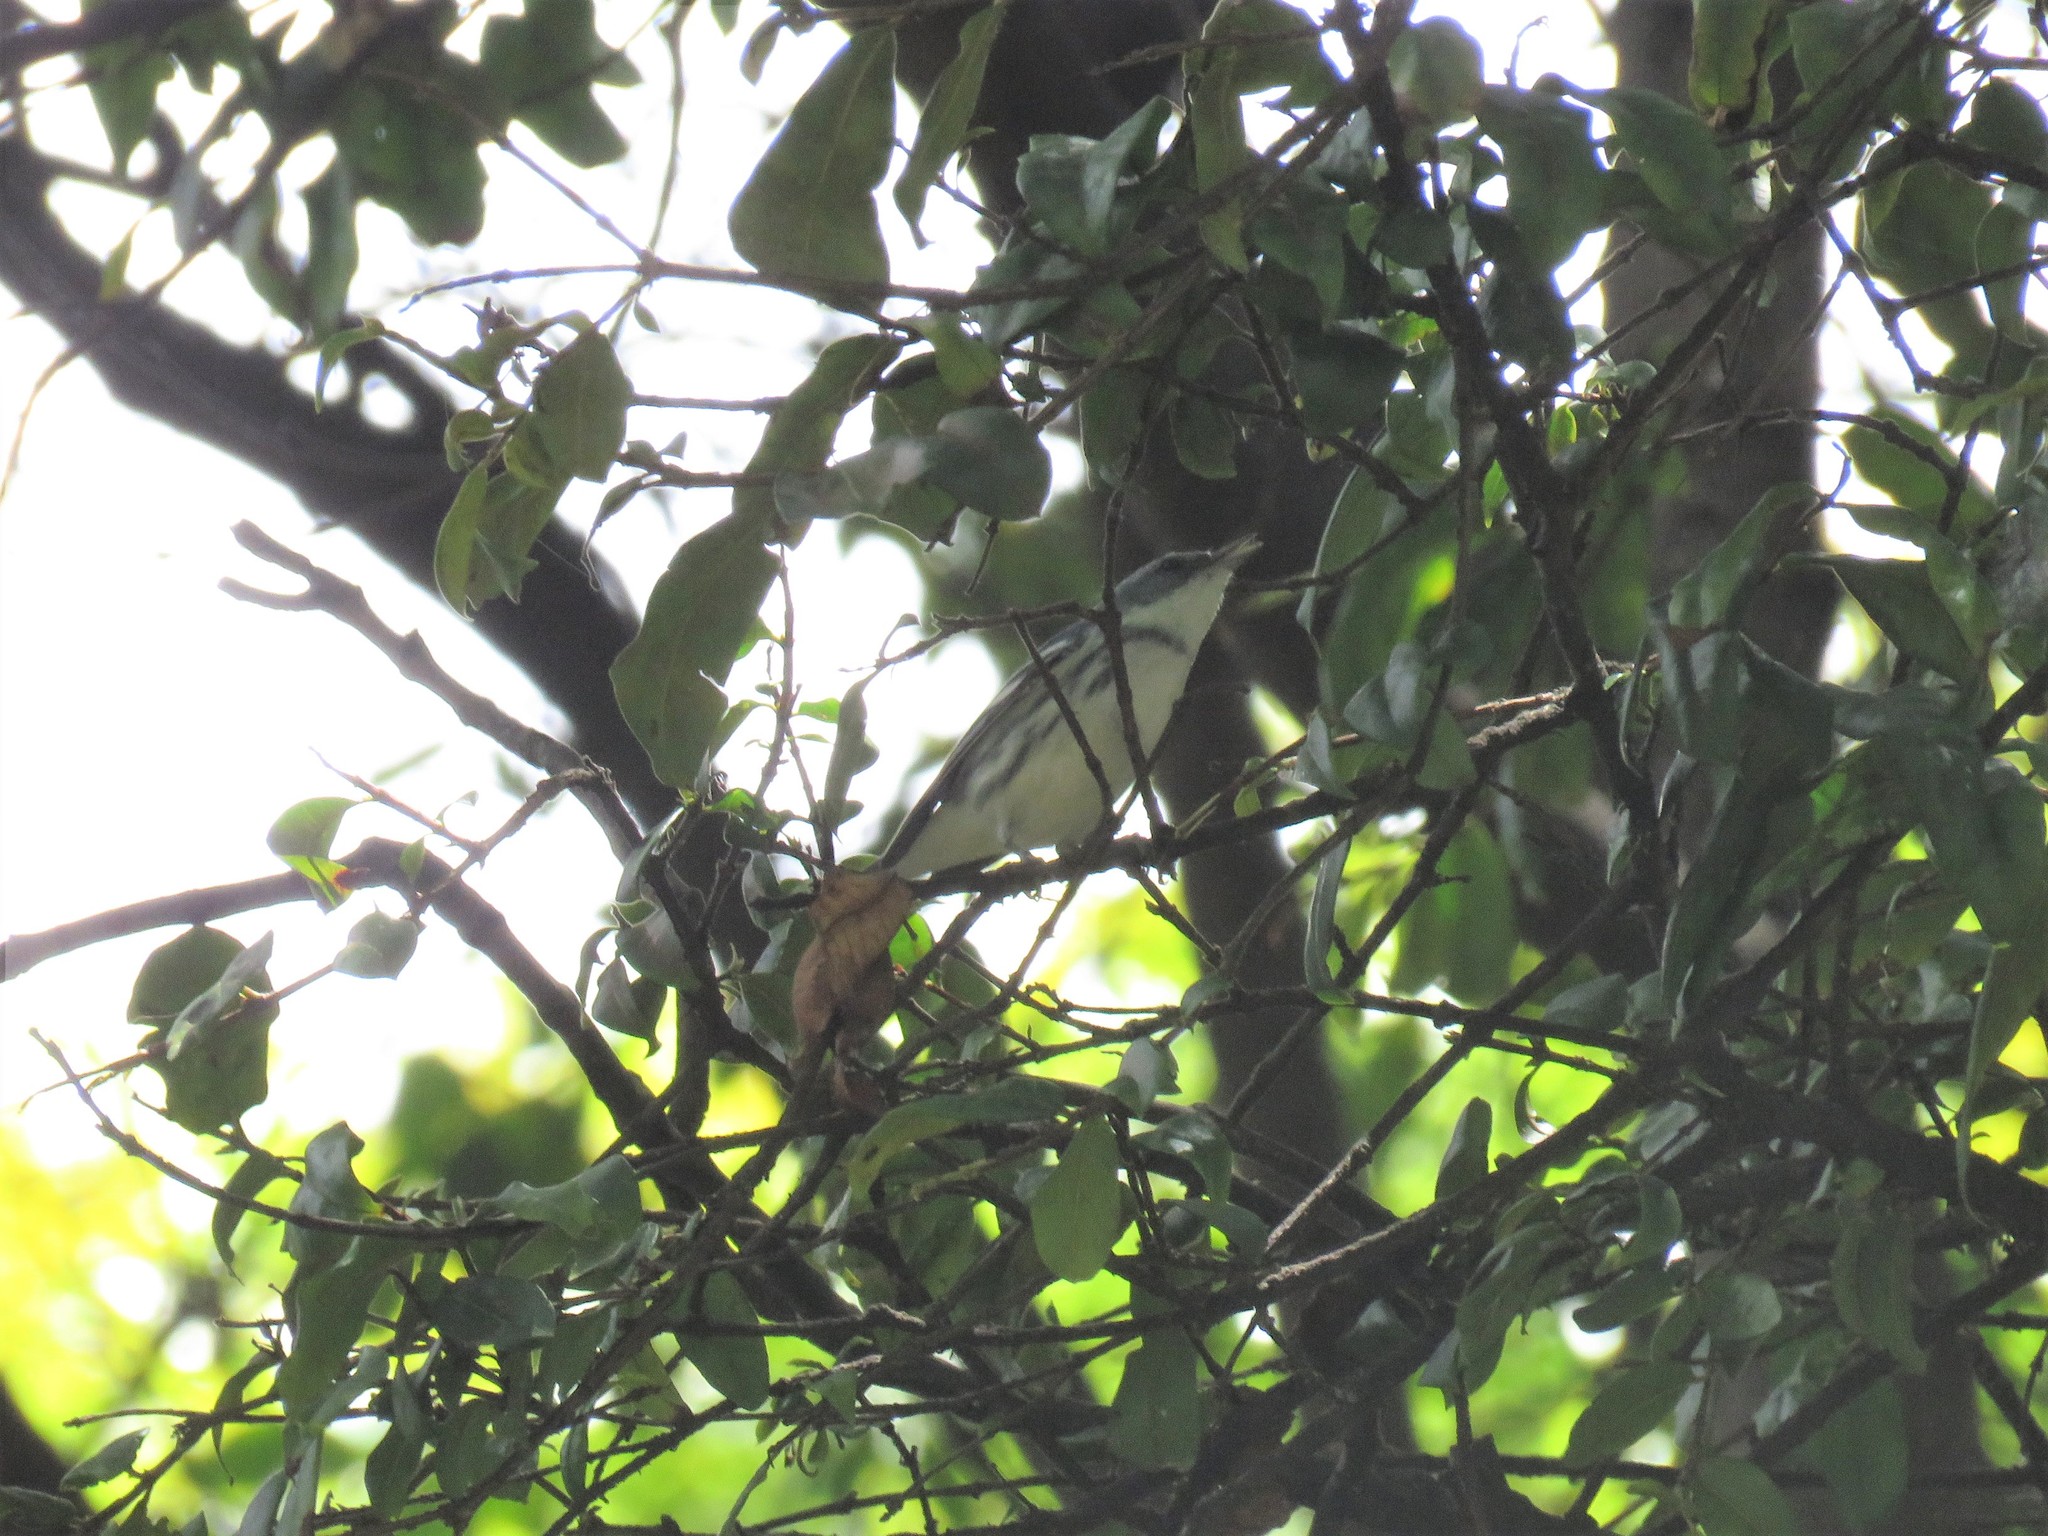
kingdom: Animalia
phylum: Chordata
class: Aves
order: Passeriformes
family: Parulidae
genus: Setophaga
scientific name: Setophaga cerulea
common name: Cerulean warbler
